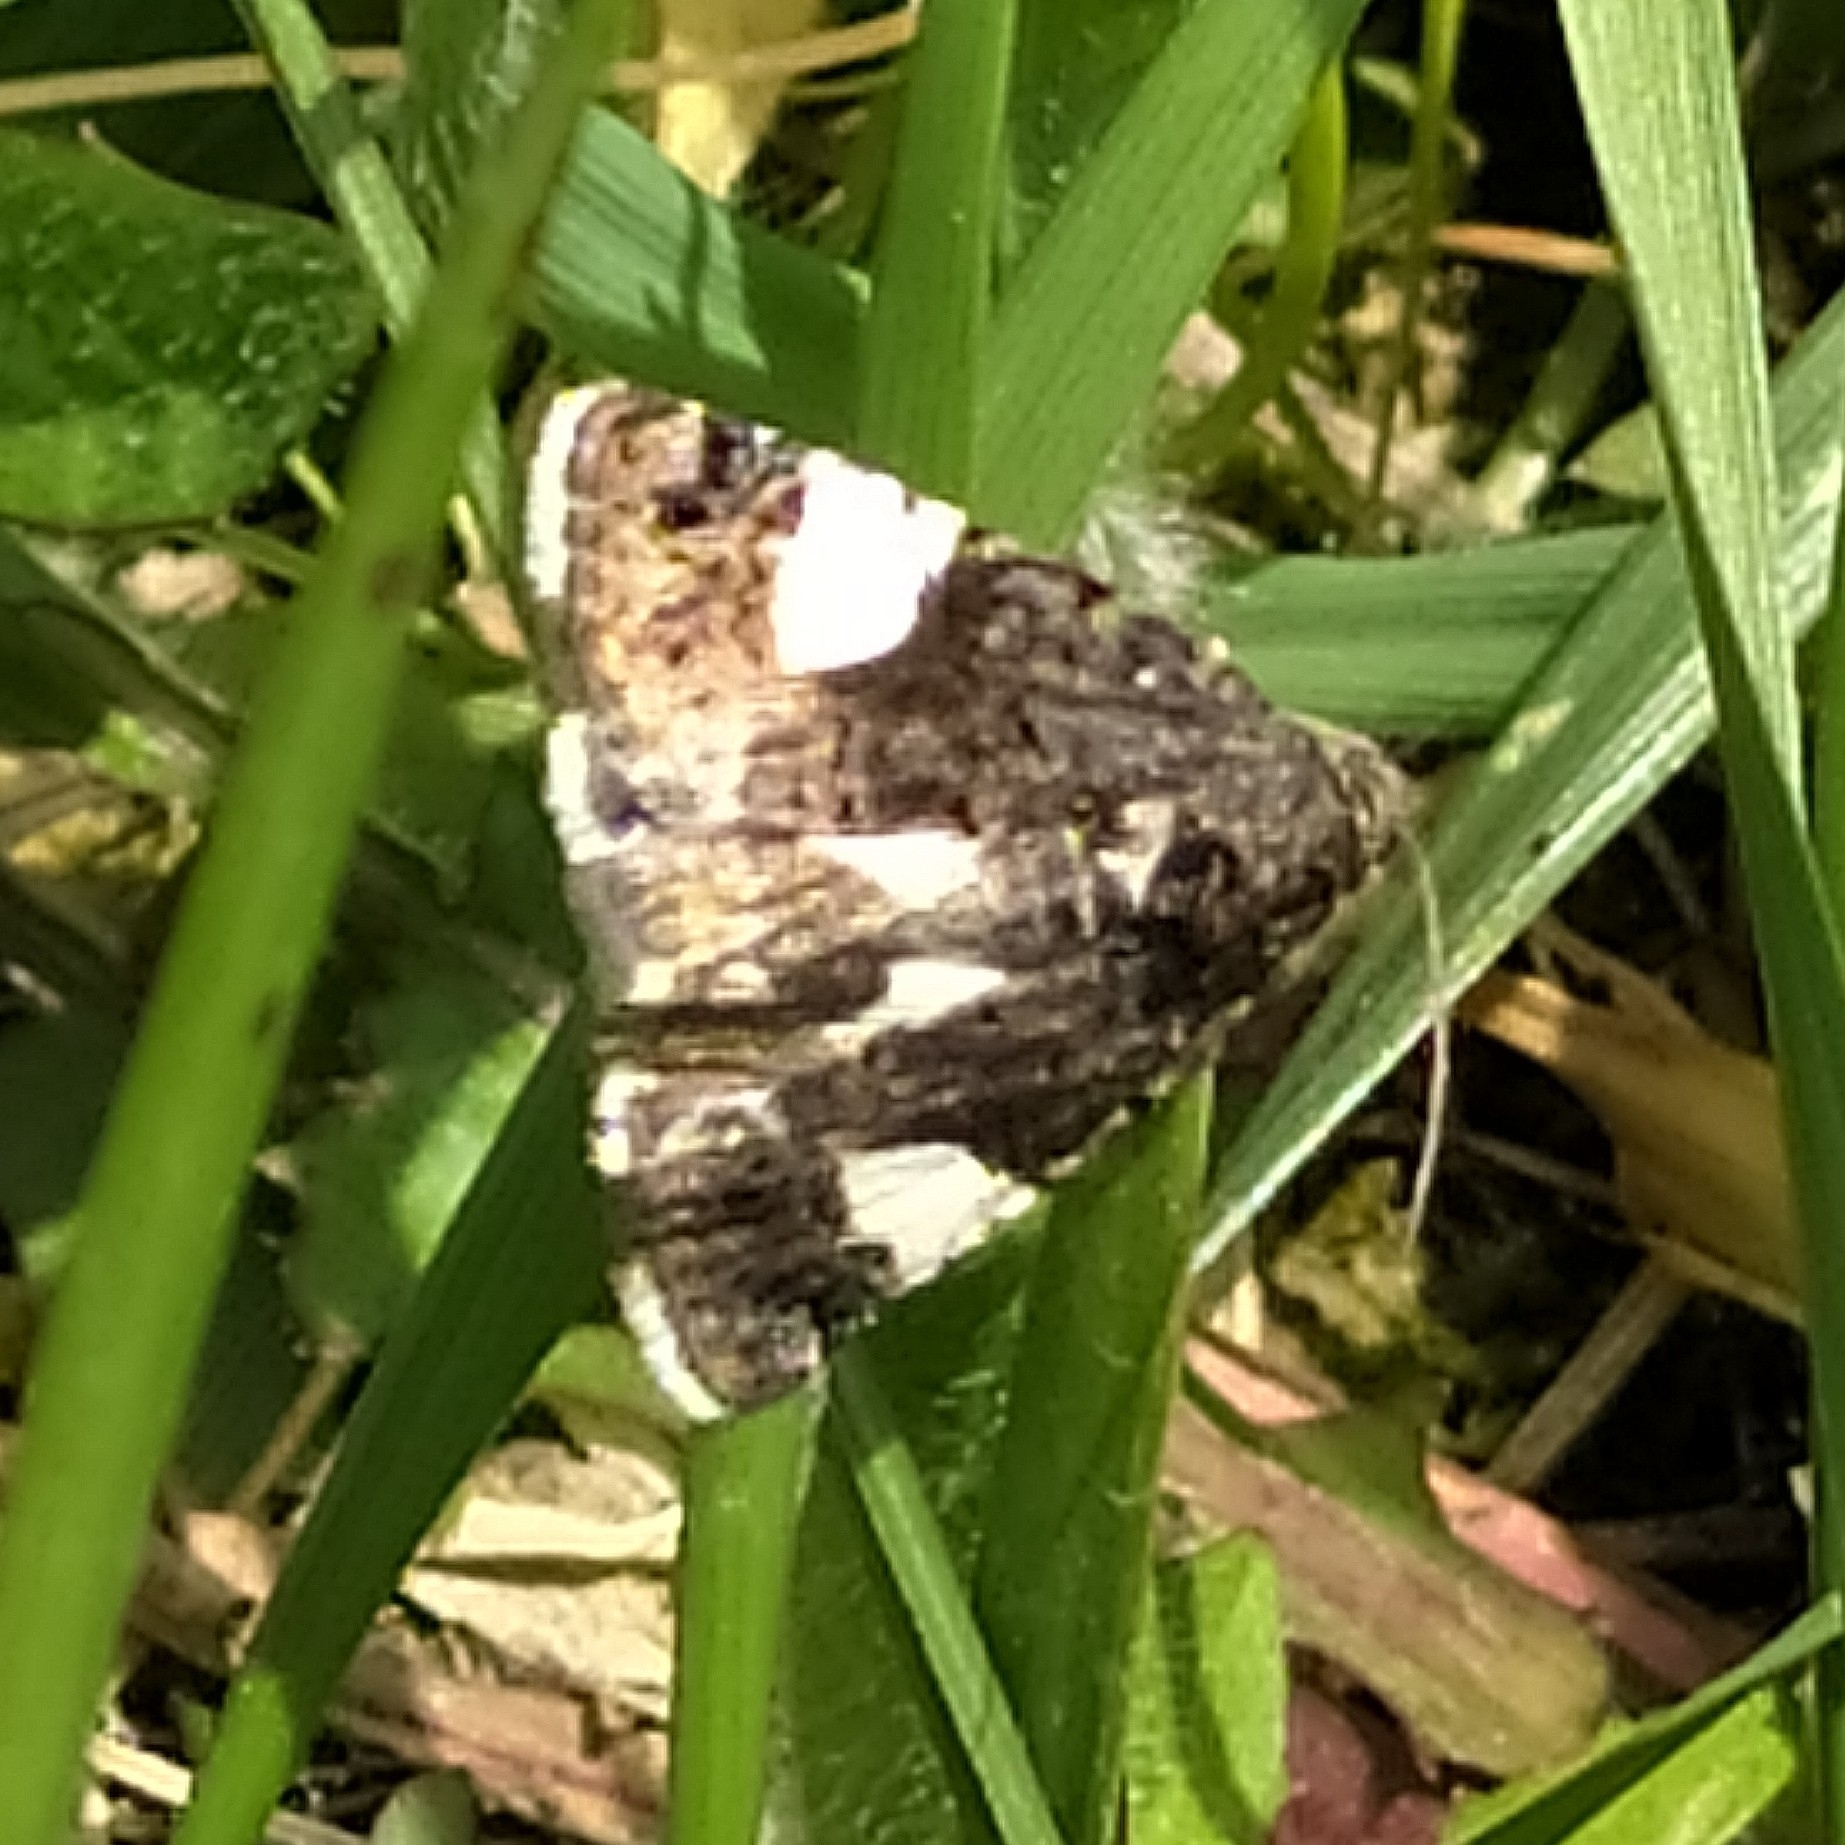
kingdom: Animalia
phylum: Arthropoda
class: Insecta
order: Lepidoptera
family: Erebidae
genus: Tyta
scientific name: Tyta luctuosa
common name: Four-spotted
